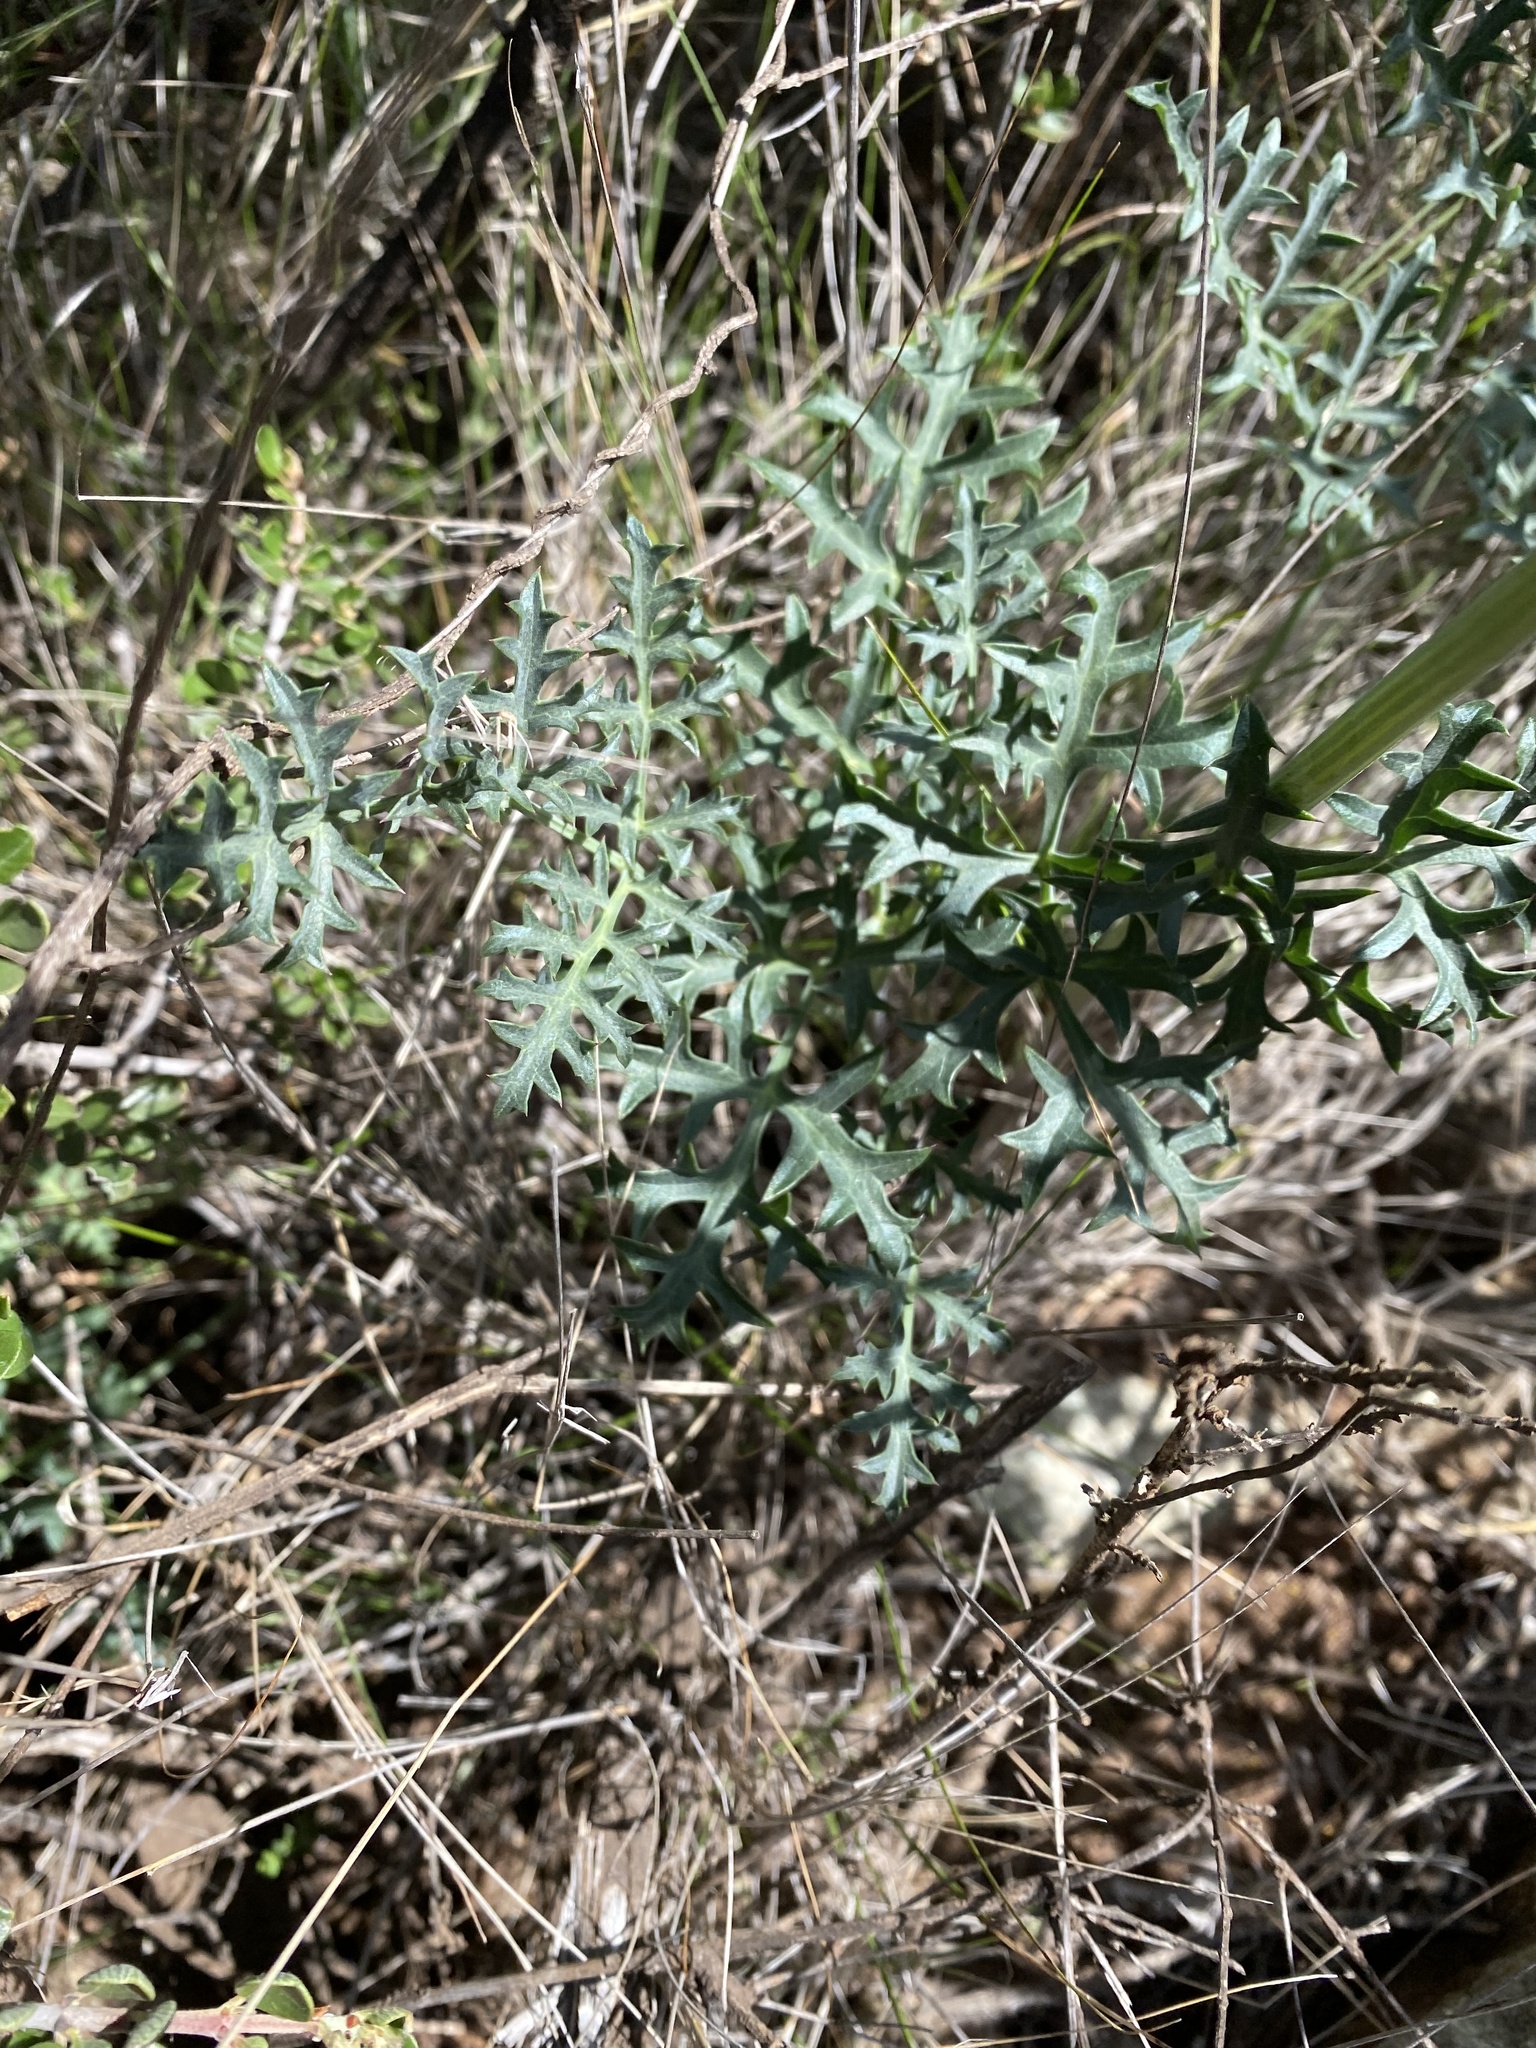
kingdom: Plantae
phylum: Tracheophyta
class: Magnoliopsida
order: Apiales
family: Apiaceae
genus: Lomatium
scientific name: Lomatium parvifolium
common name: Small-leaf lomatium
